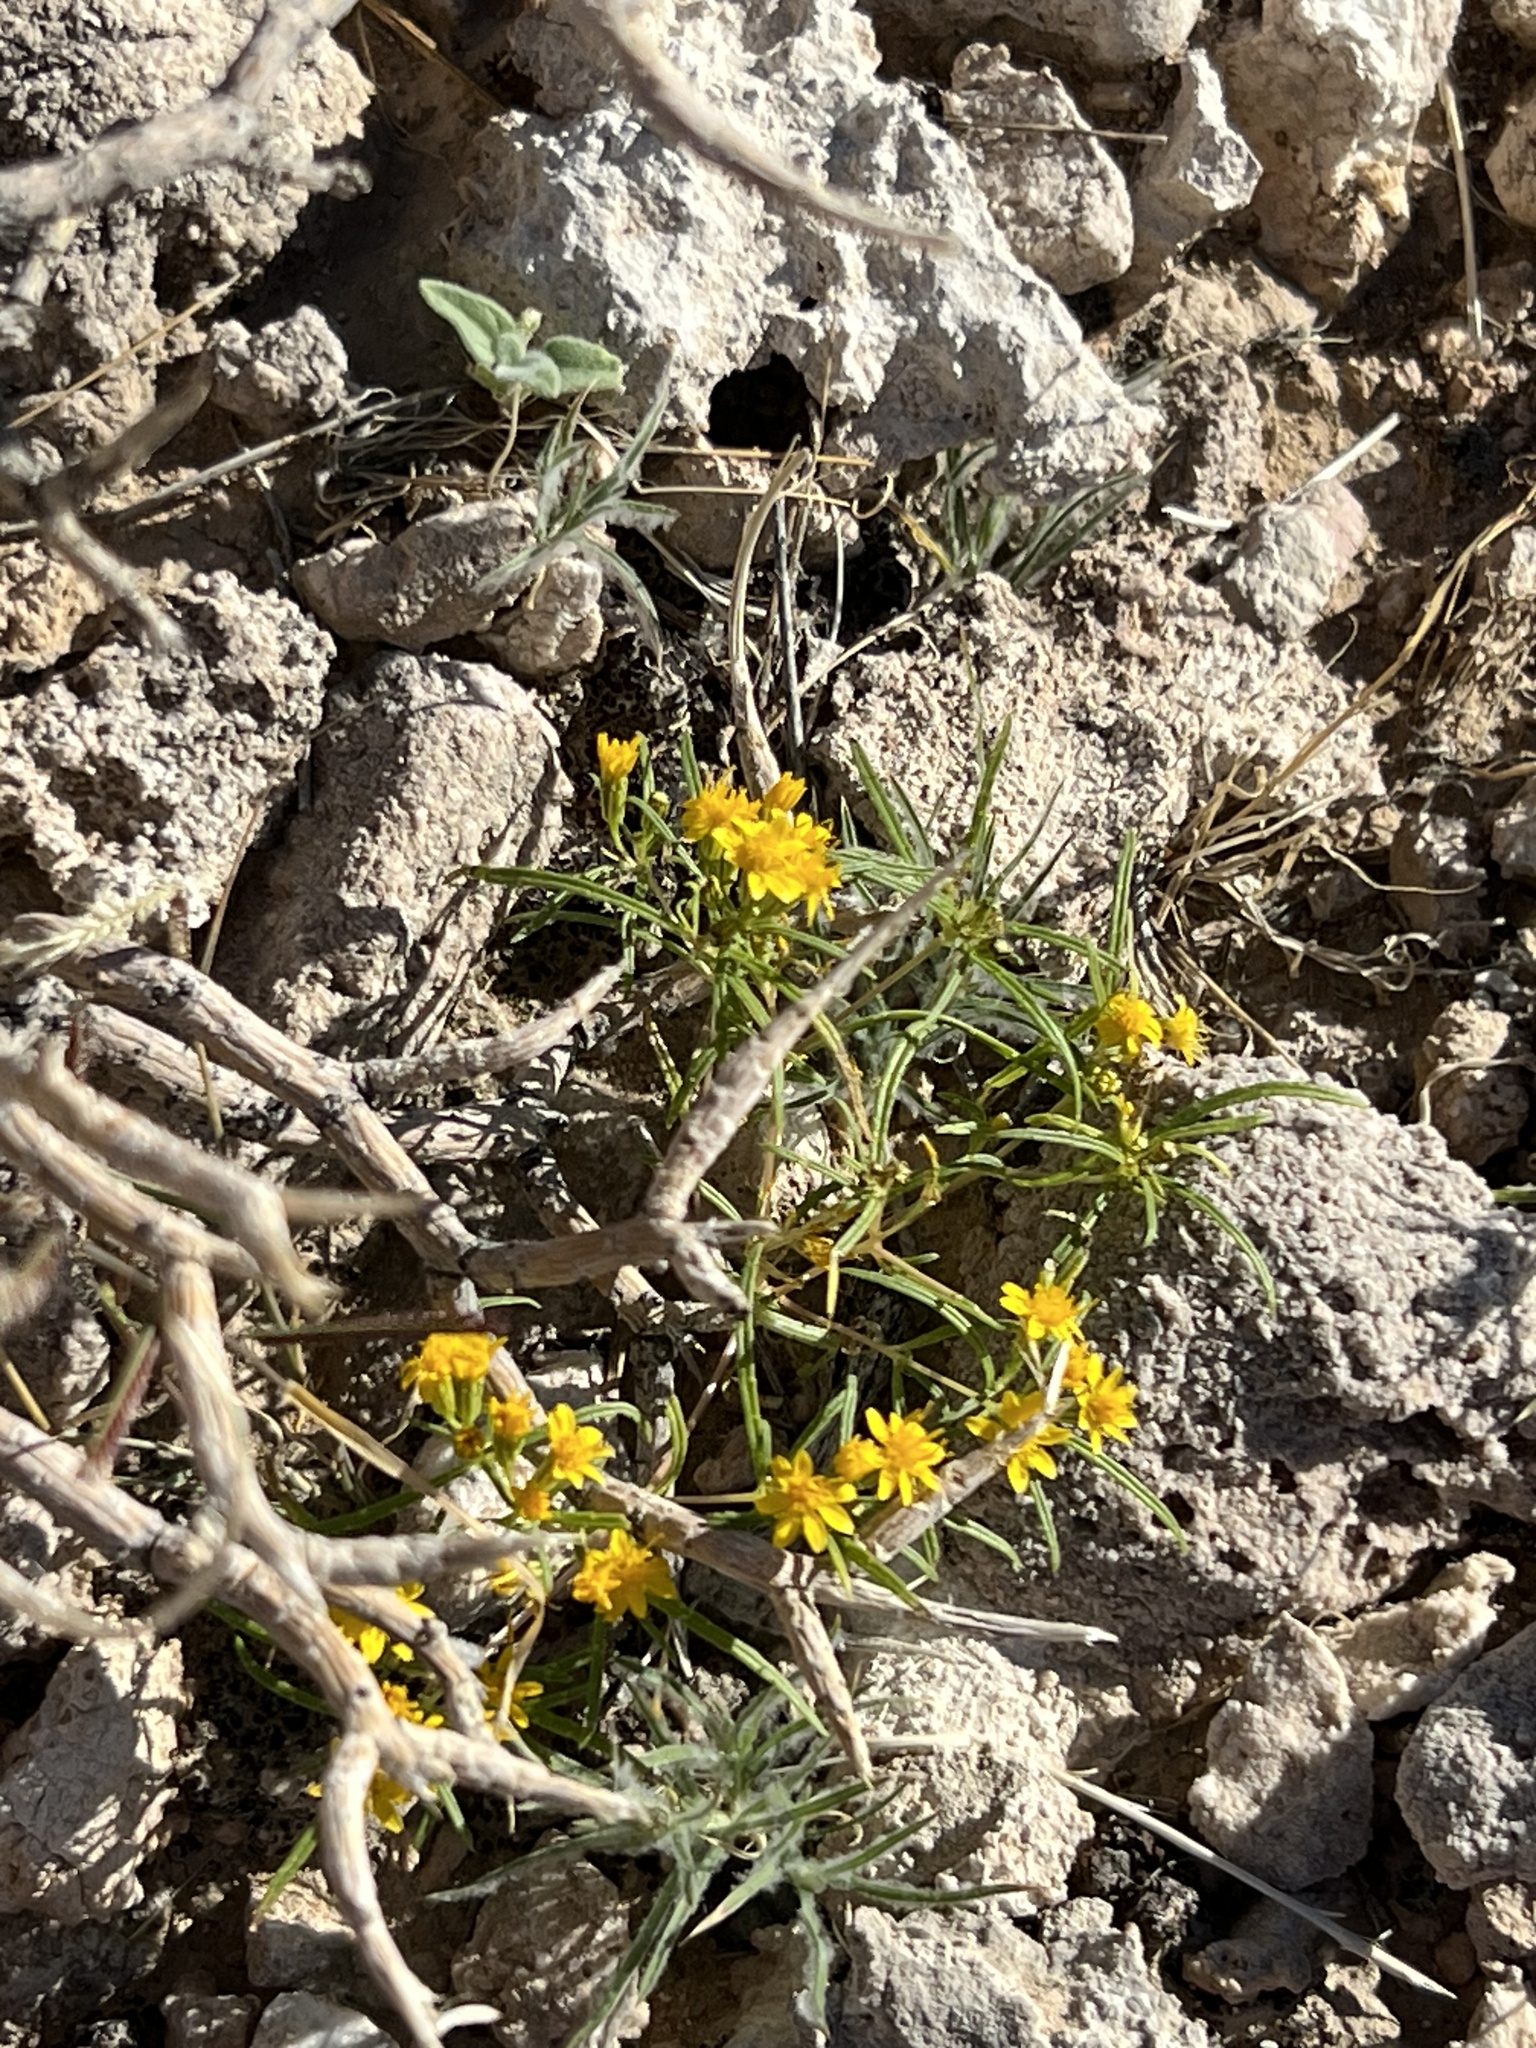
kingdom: Plantae
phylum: Tracheophyta
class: Magnoliopsida
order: Asterales
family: Asteraceae
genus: Pectis
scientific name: Pectis papposa
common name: Many-bristle chinchweed
